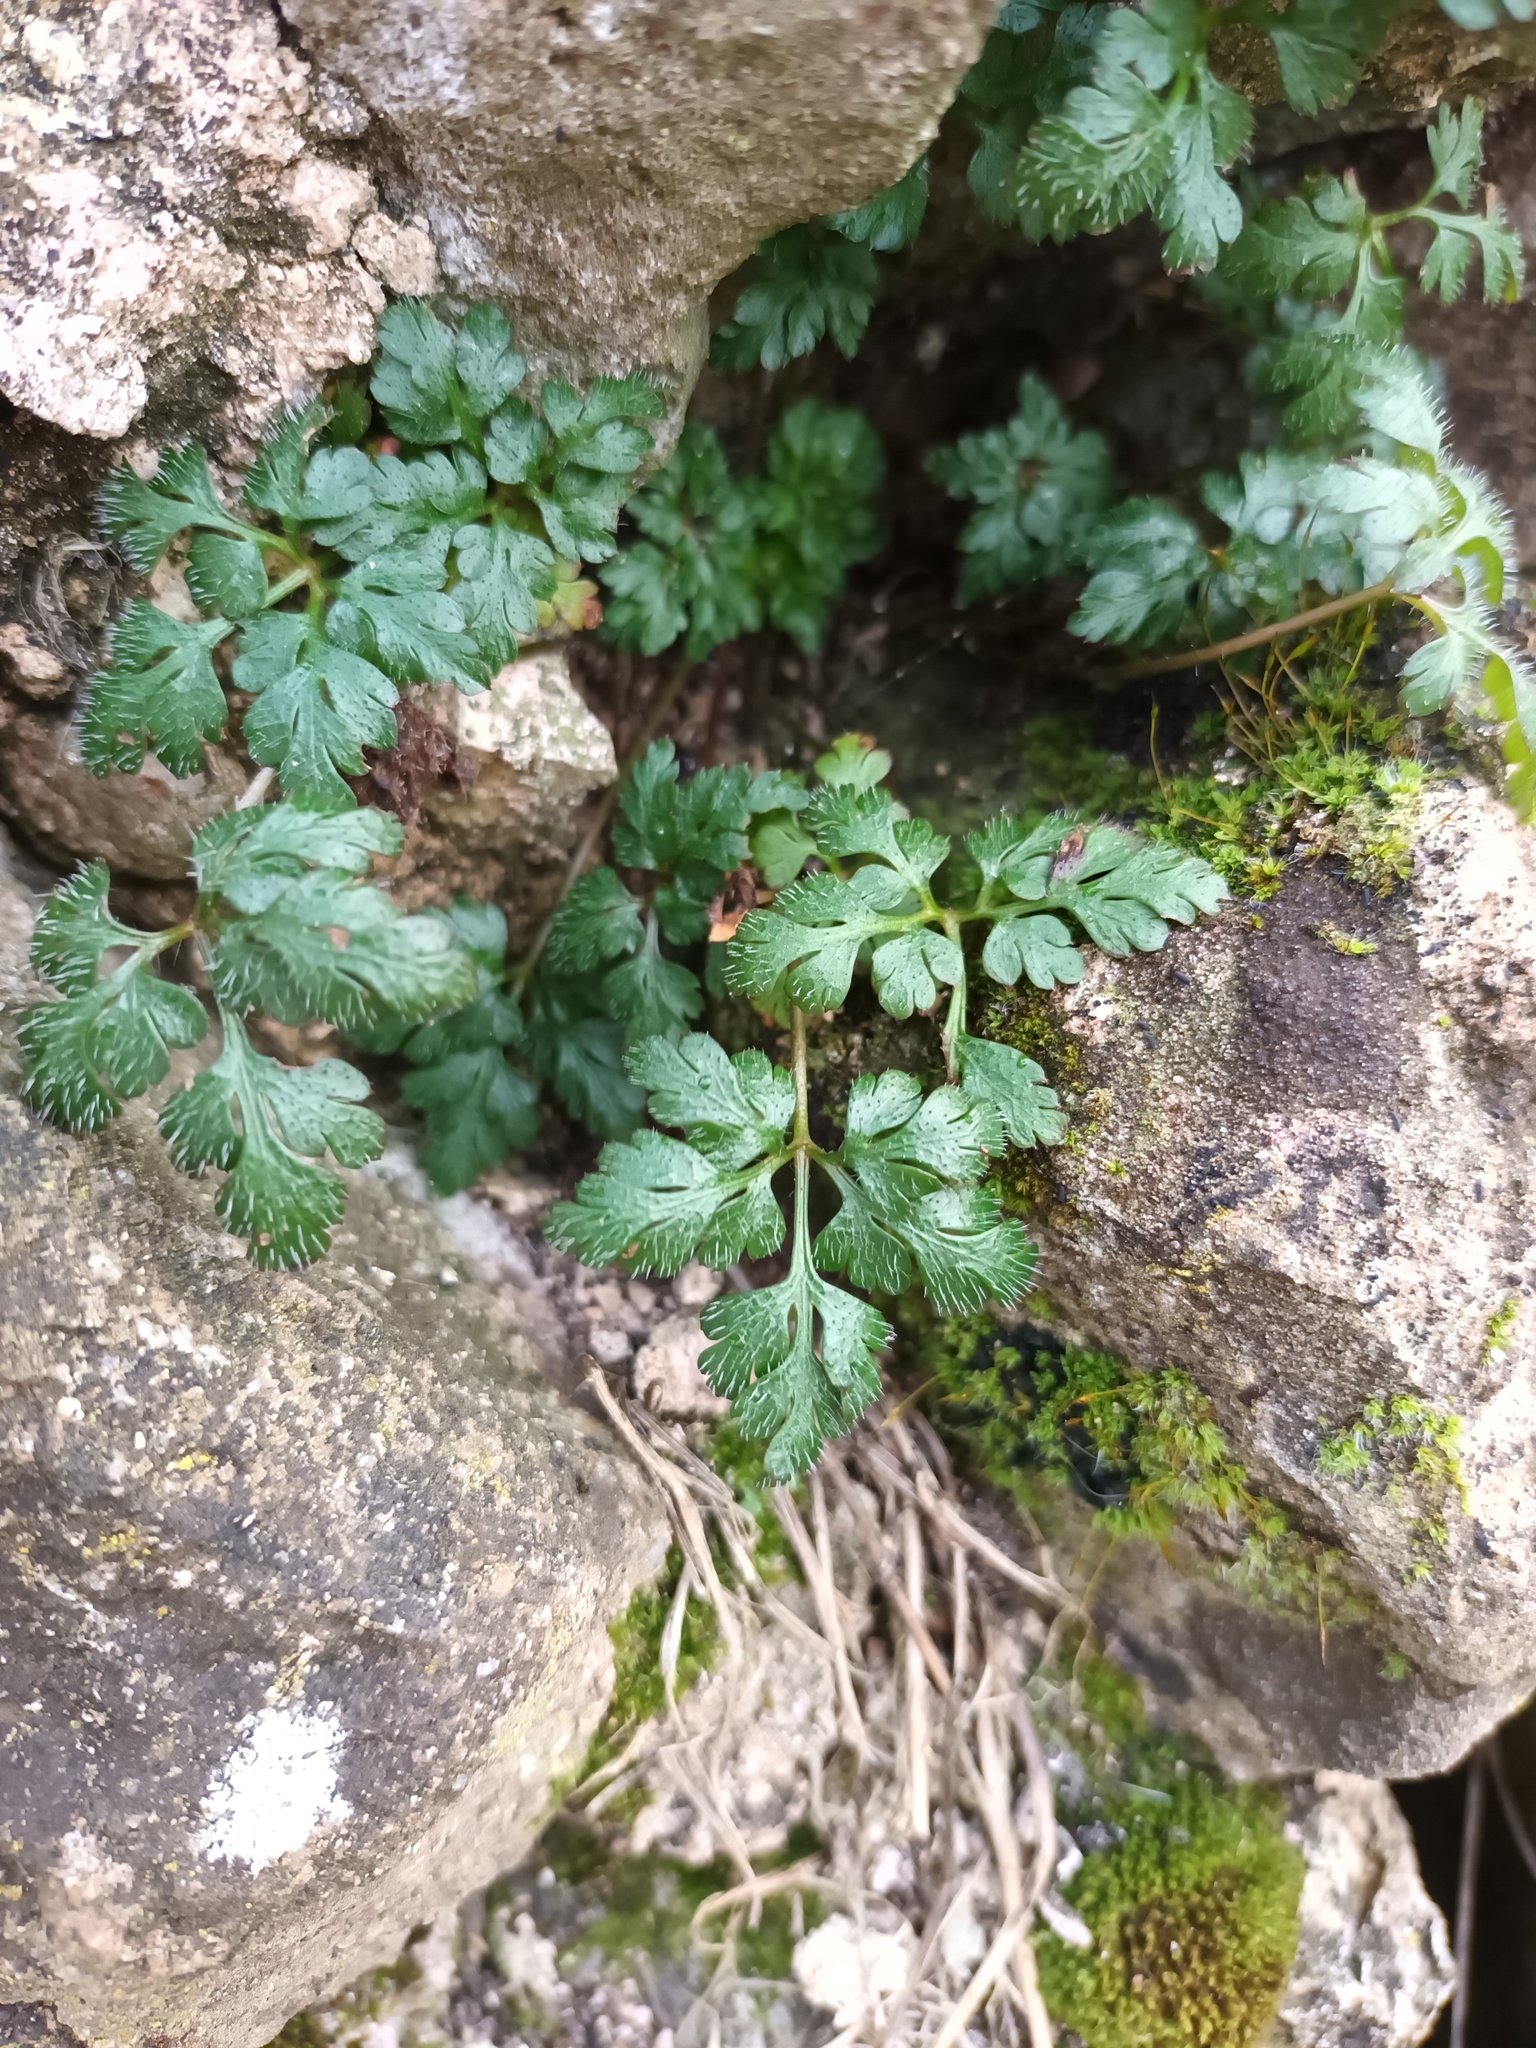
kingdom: Plantae
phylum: Tracheophyta
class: Magnoliopsida
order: Geraniales
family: Geraniaceae
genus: Geranium
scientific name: Geranium robertianum
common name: Herb-robert
